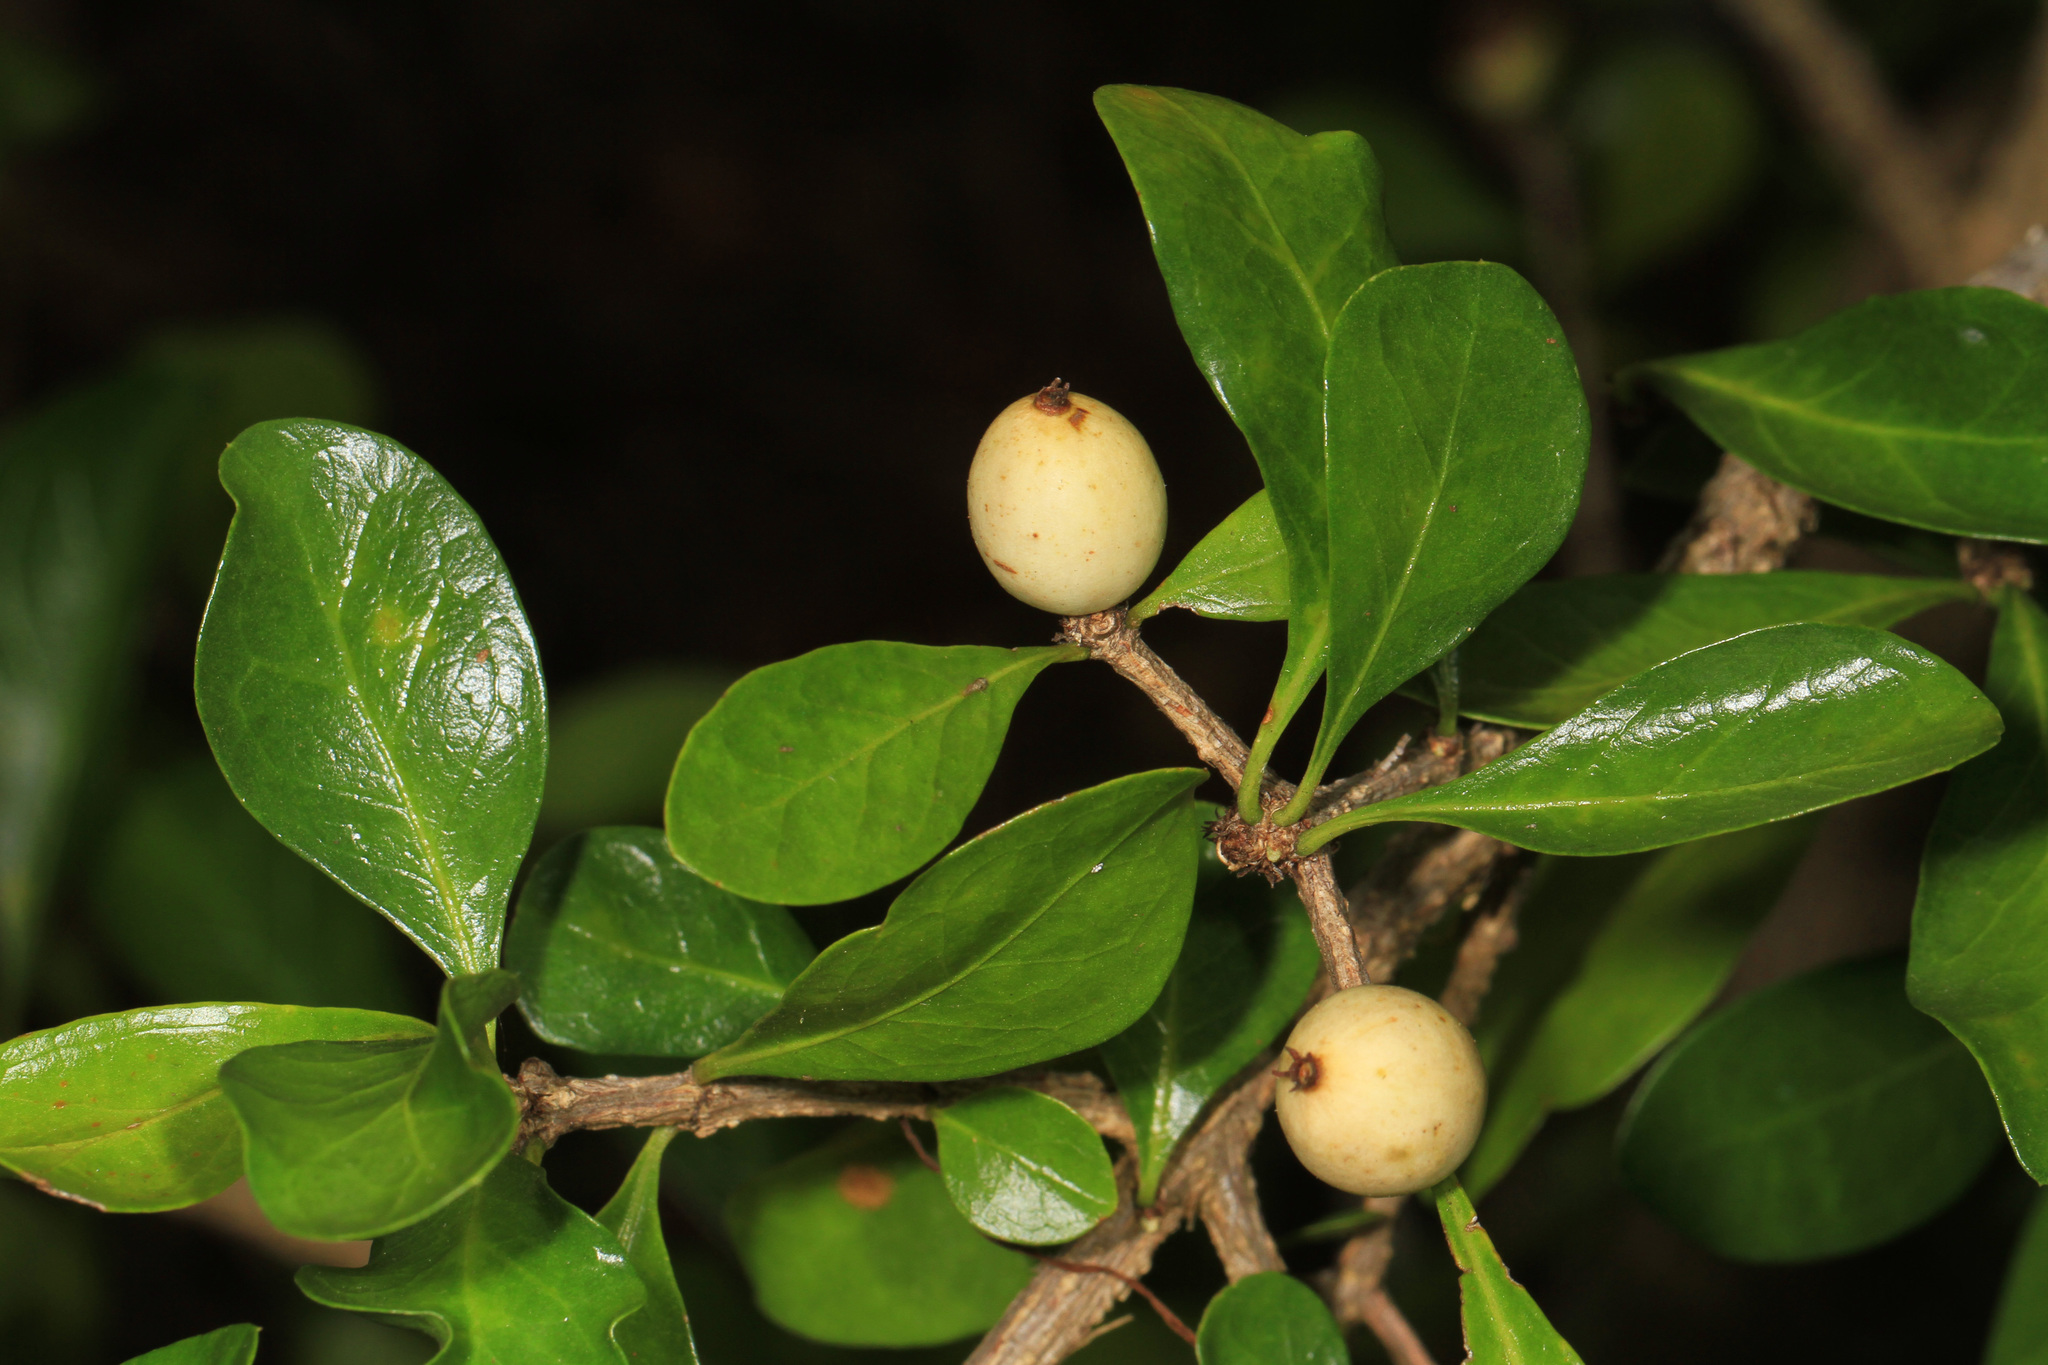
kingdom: Plantae
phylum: Tracheophyta
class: Magnoliopsida
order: Gentianales
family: Rubiaceae
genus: Randia
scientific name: Randia aculeata
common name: Inkberry
